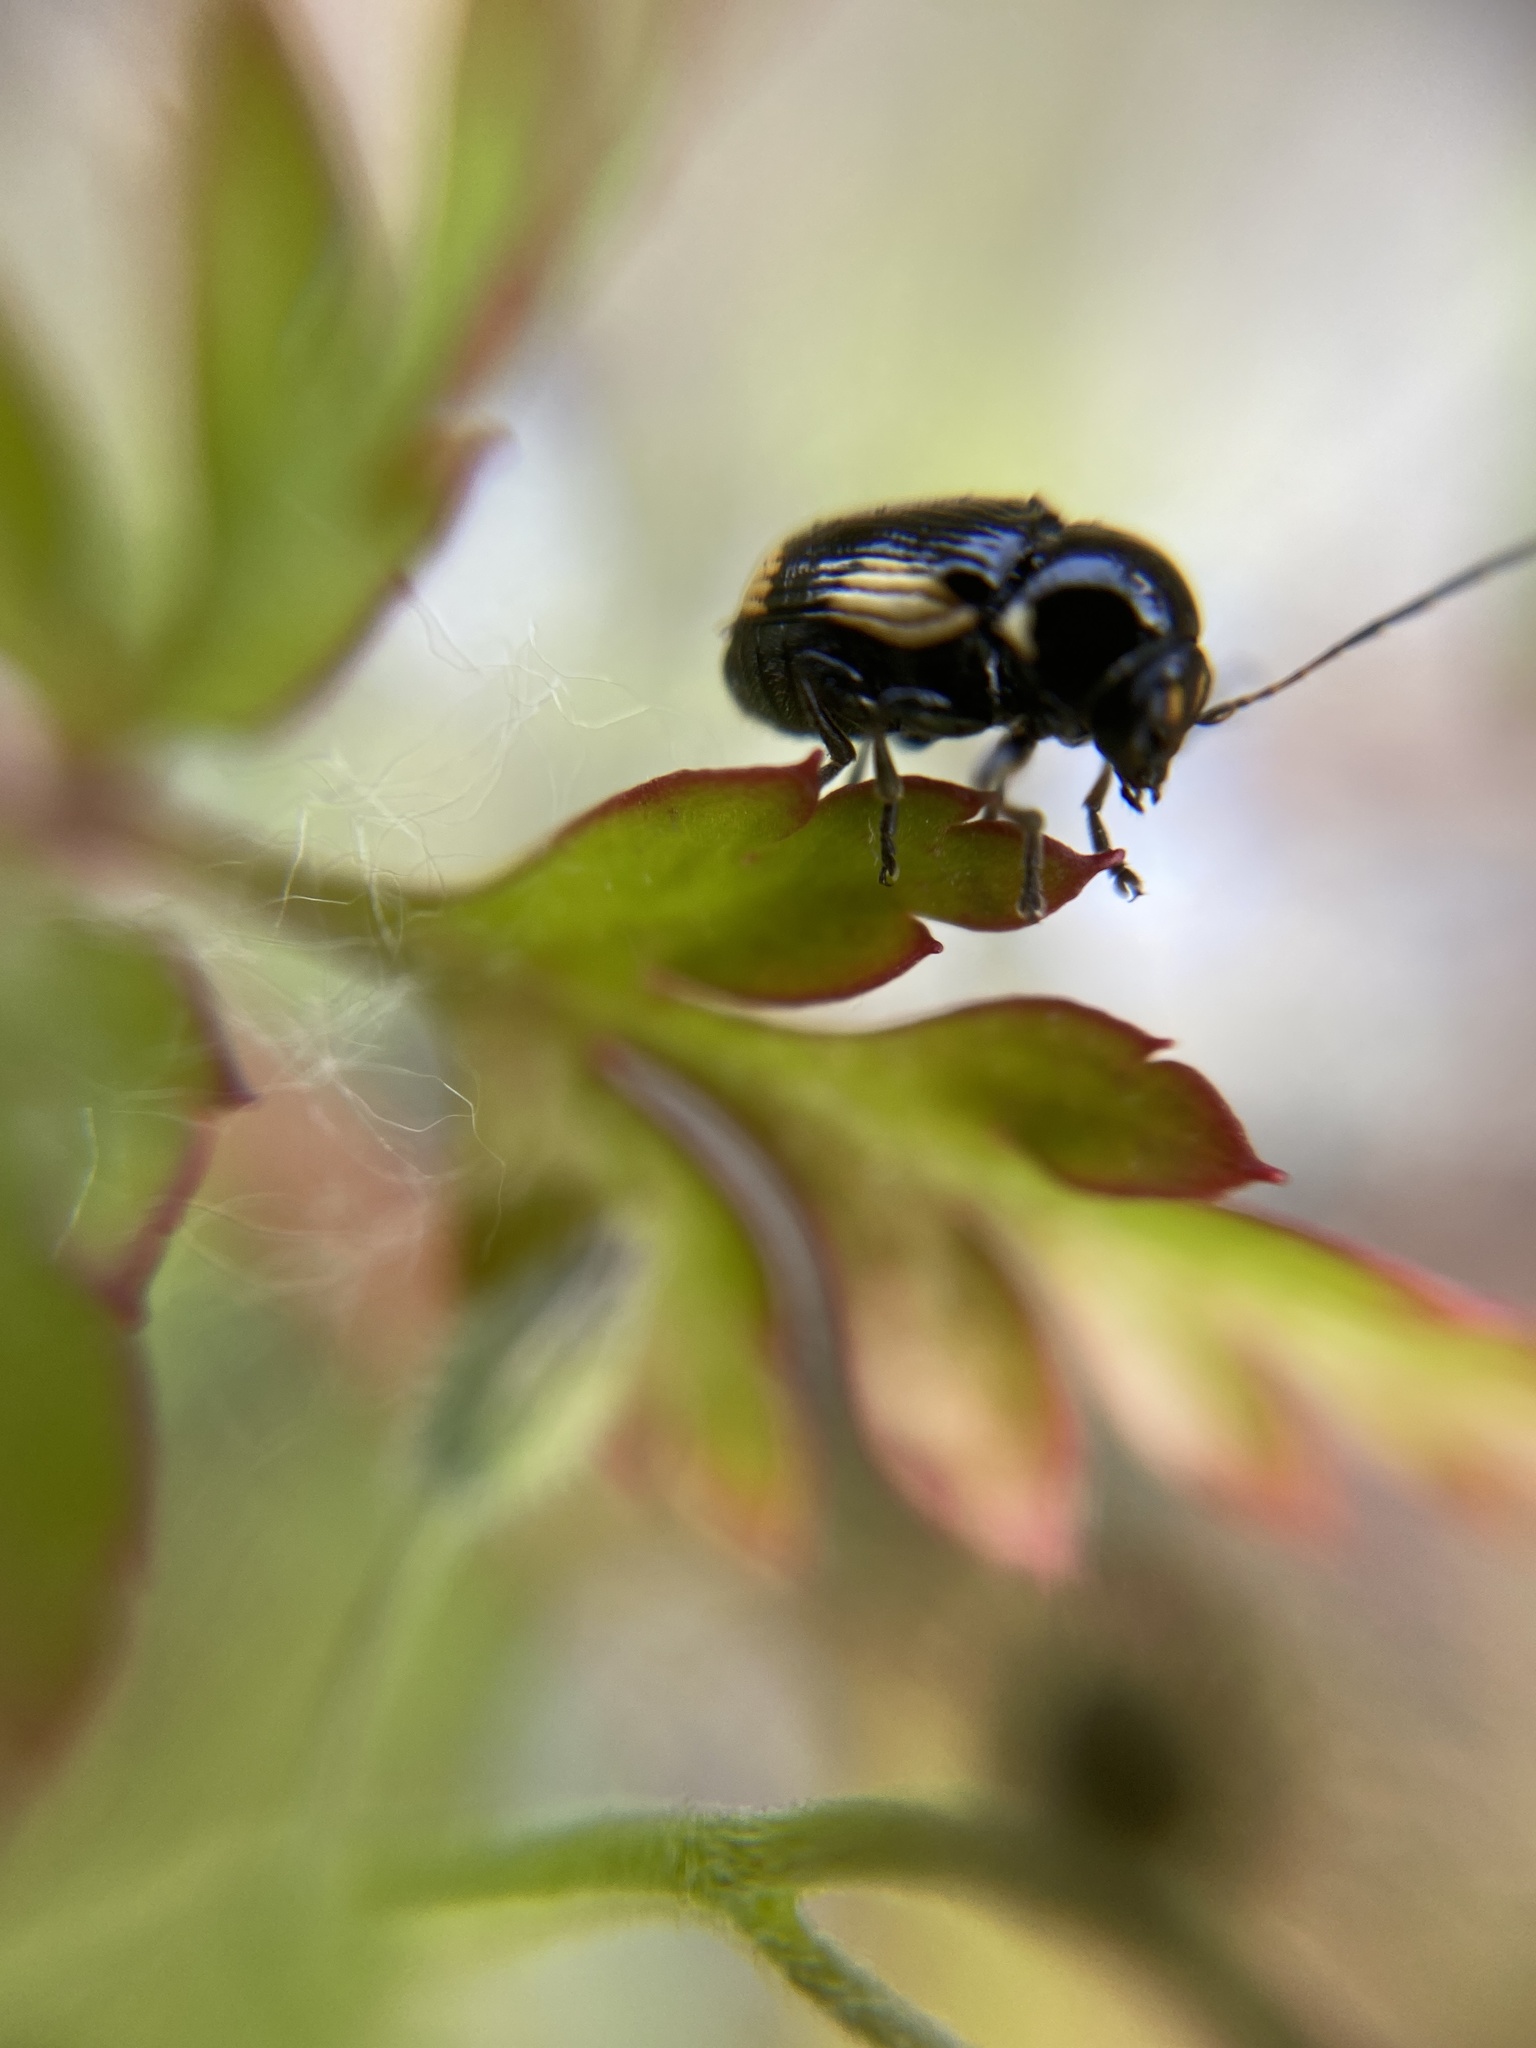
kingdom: Animalia
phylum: Arthropoda
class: Insecta
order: Coleoptera
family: Chrysomelidae
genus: Cryptocephalus
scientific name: Cryptocephalus moraei
